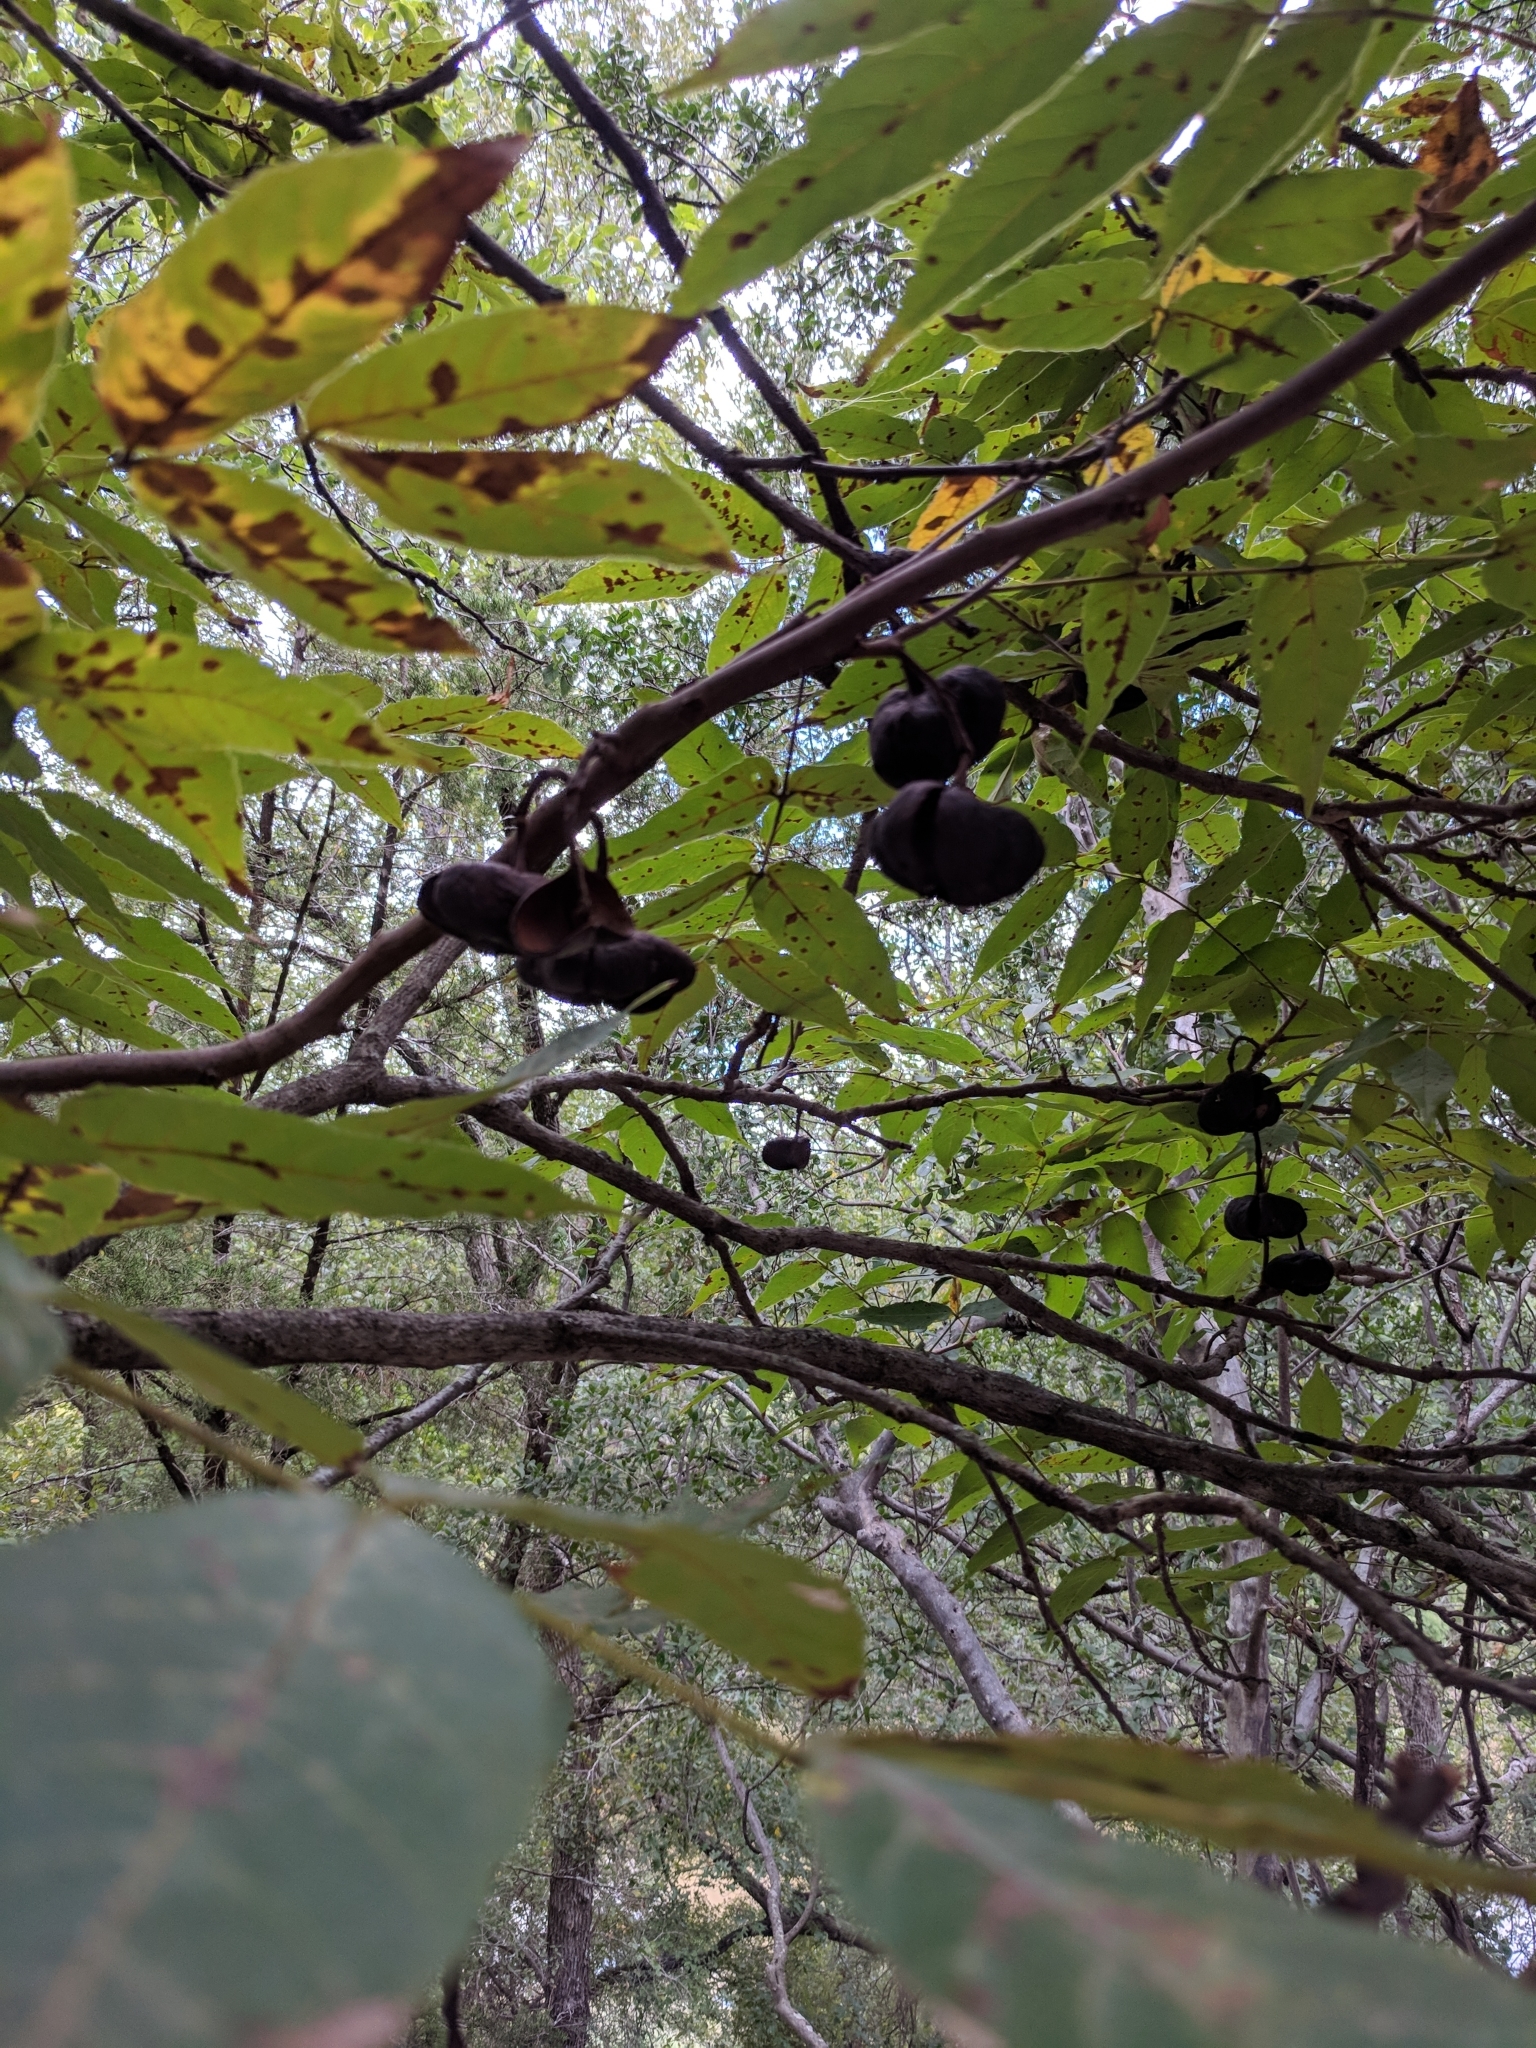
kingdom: Plantae
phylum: Tracheophyta
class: Magnoliopsida
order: Sapindales
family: Sapindaceae
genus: Ungnadia
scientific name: Ungnadia speciosa
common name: Texas-buckeye
